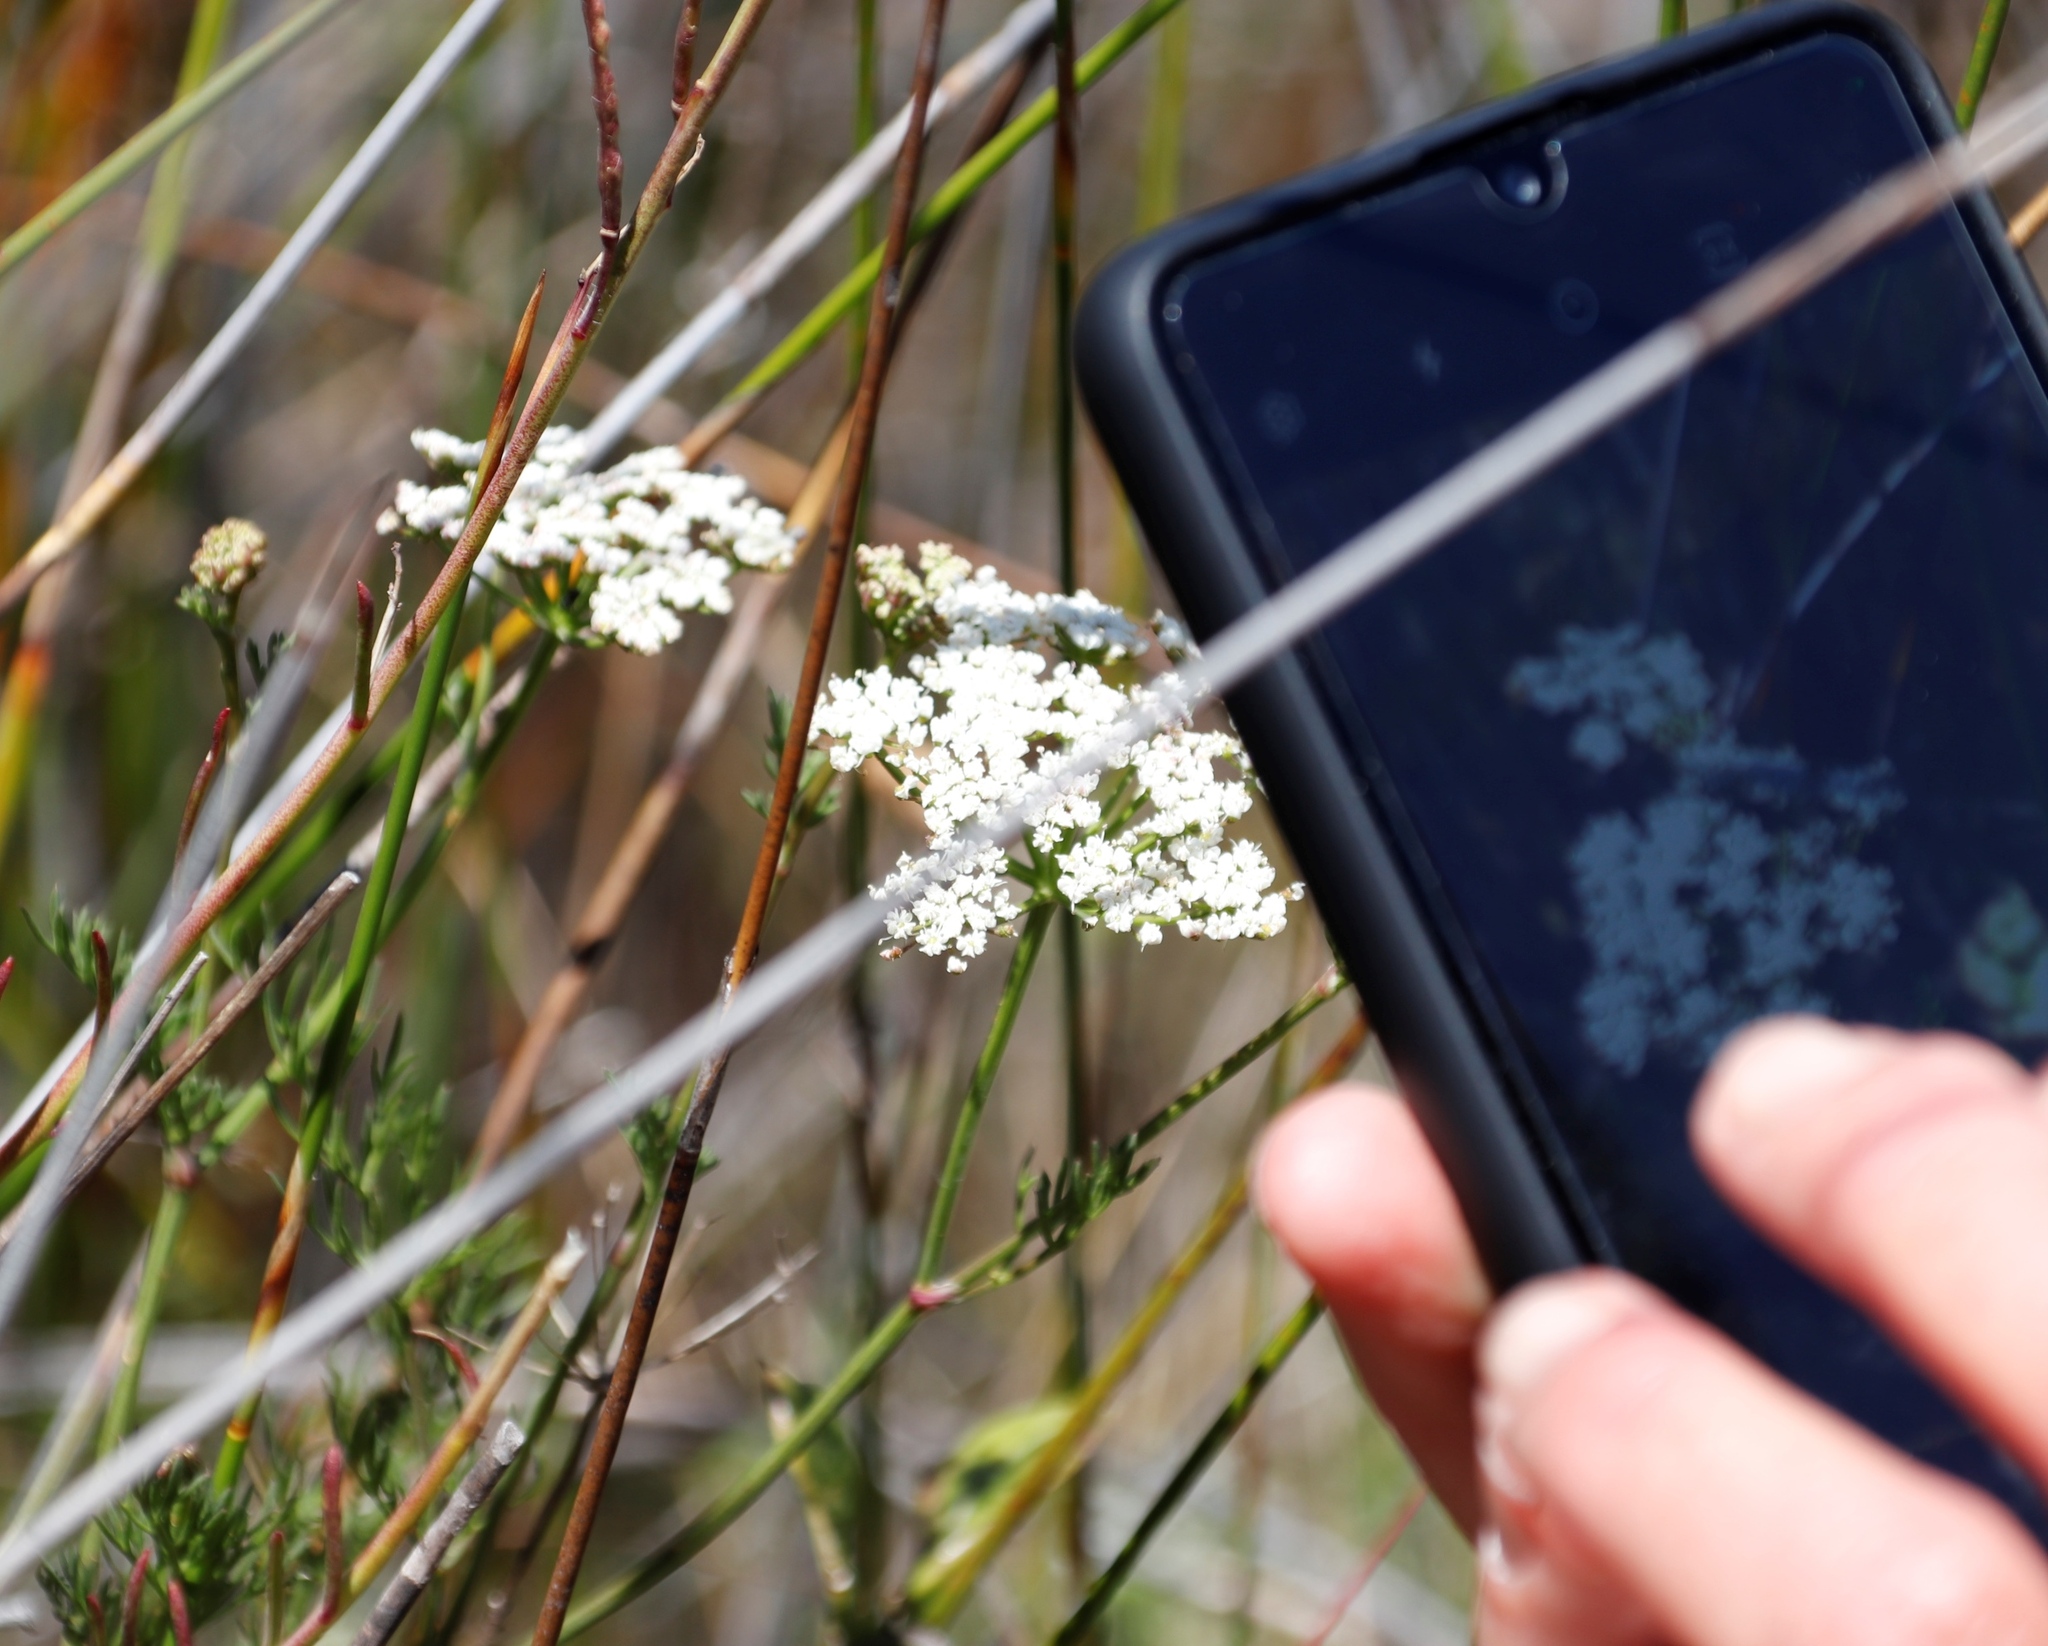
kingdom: Plantae
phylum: Tracheophyta
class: Magnoliopsida
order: Apiales
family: Apiaceae
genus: Dasispermum
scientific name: Dasispermum perennans
